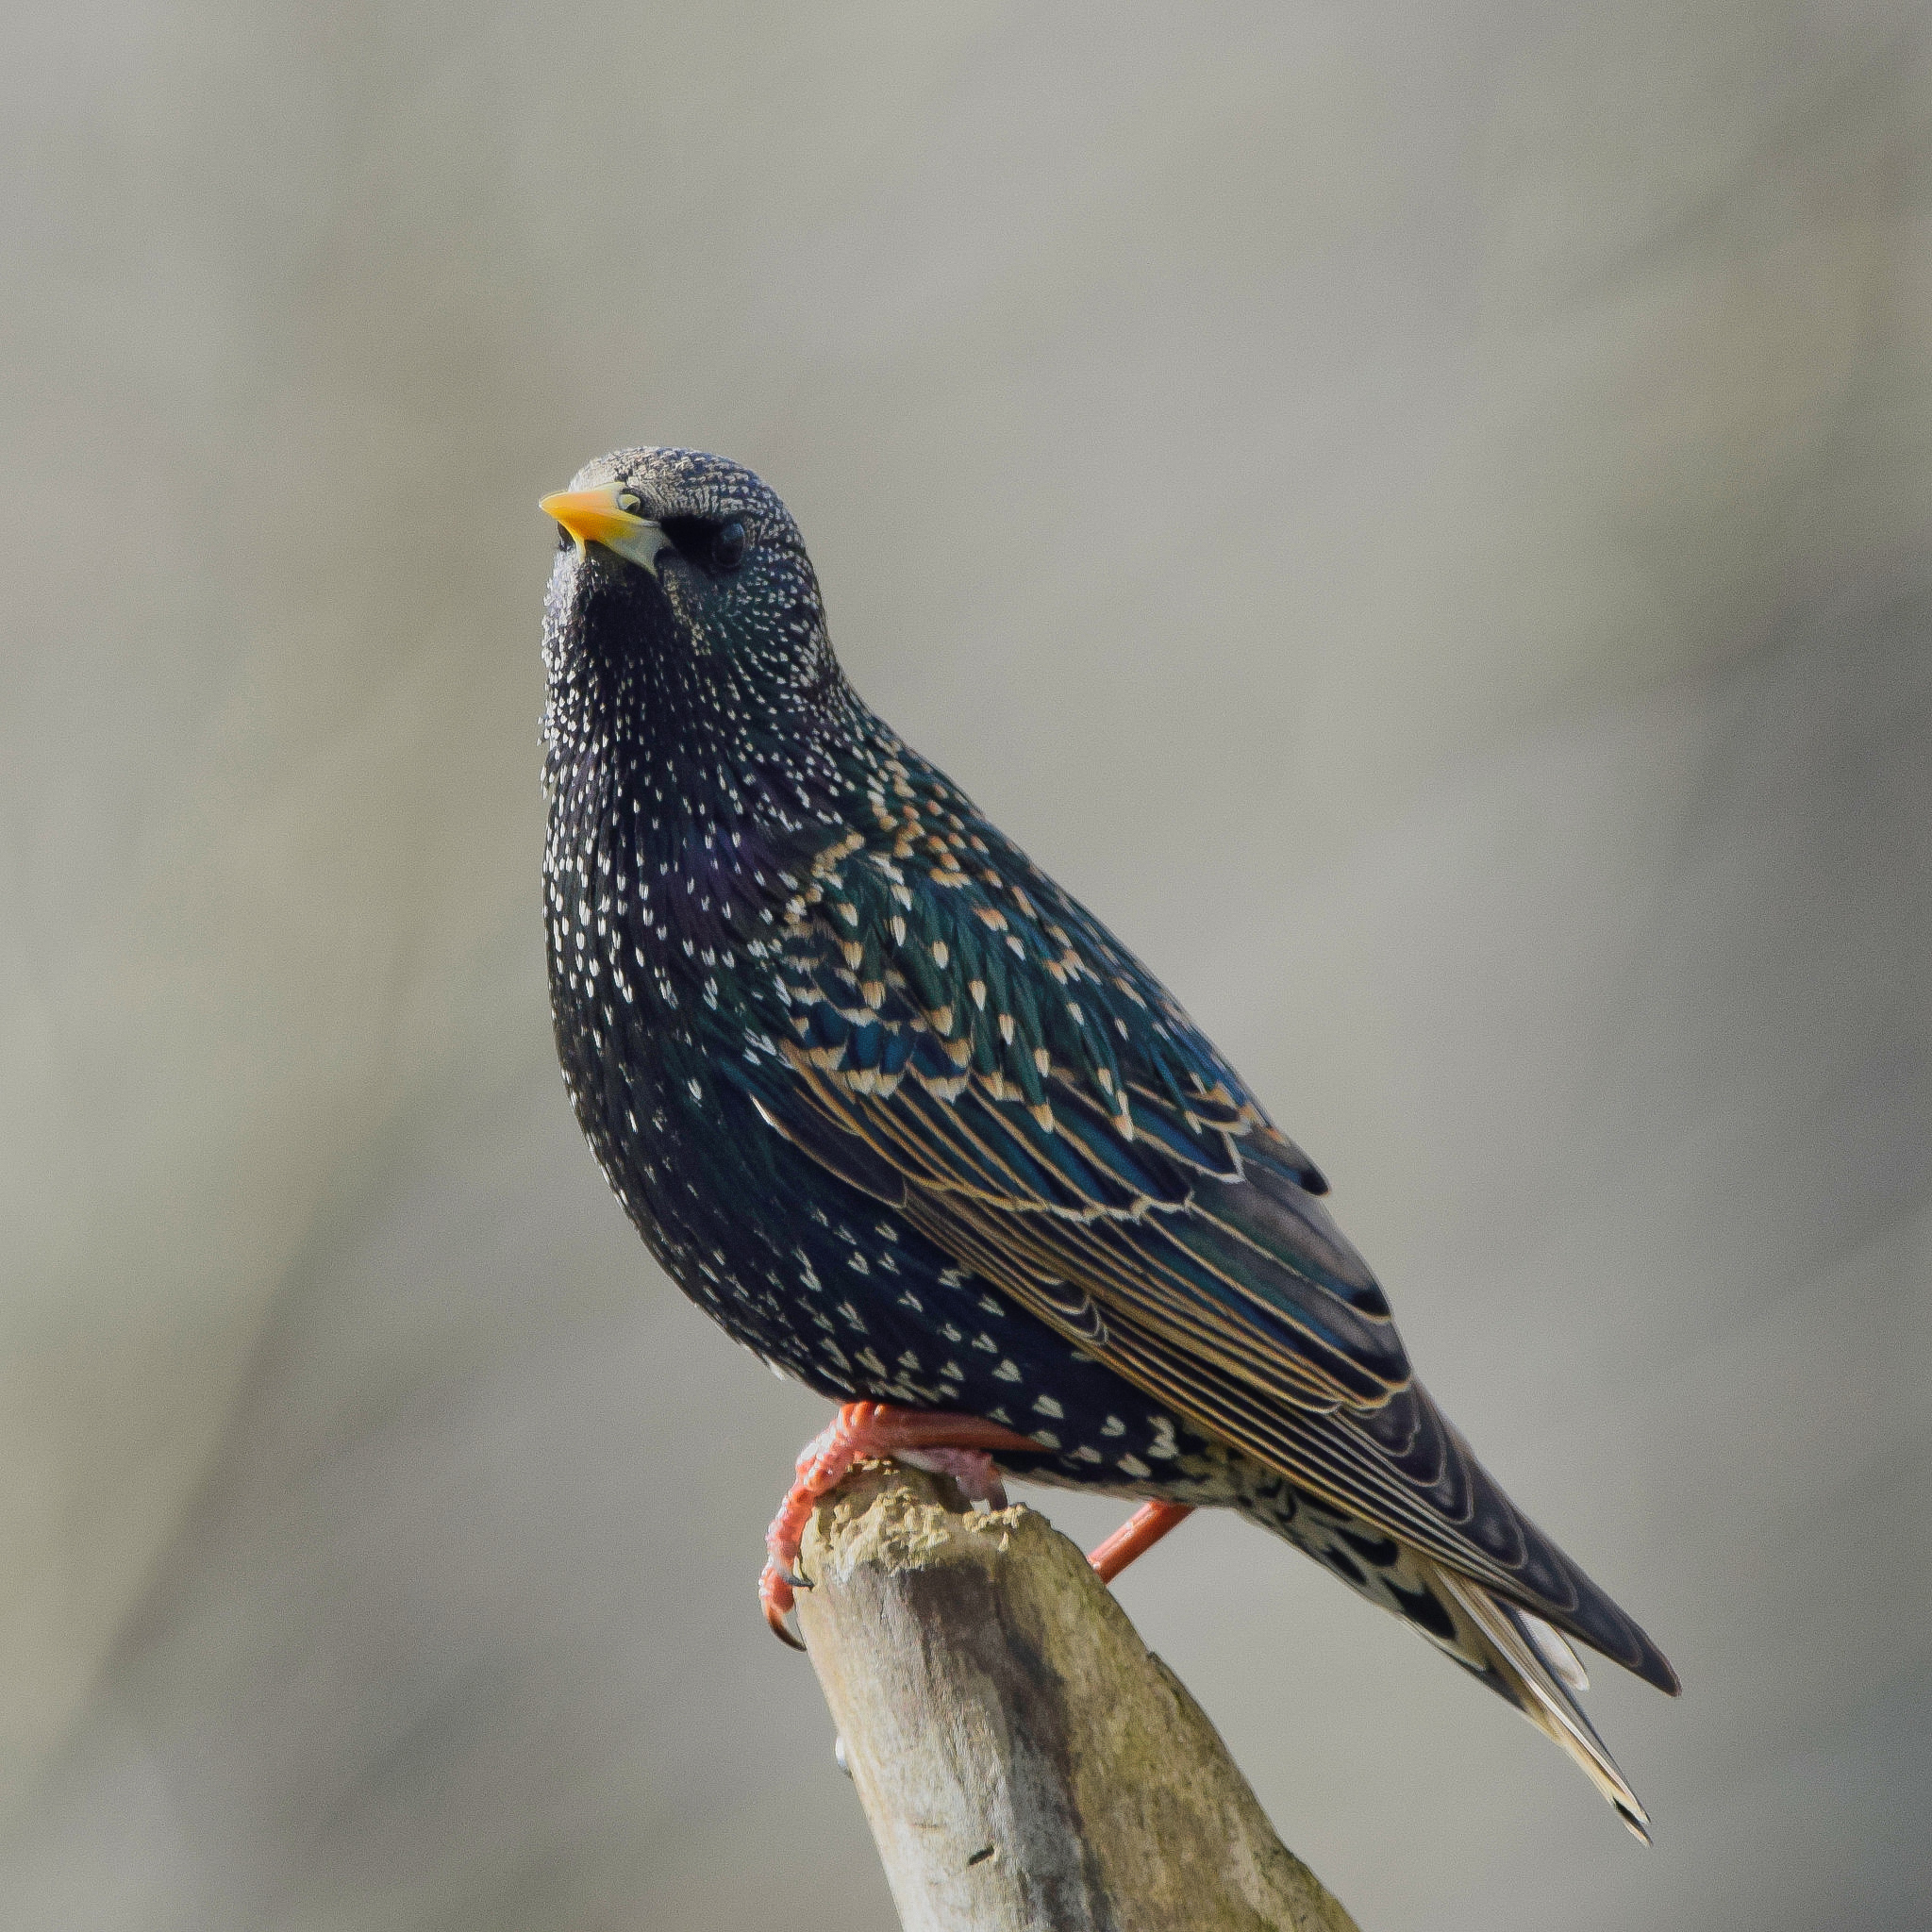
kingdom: Animalia
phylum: Chordata
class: Aves
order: Passeriformes
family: Sturnidae
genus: Sturnus
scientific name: Sturnus vulgaris
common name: Common starling
